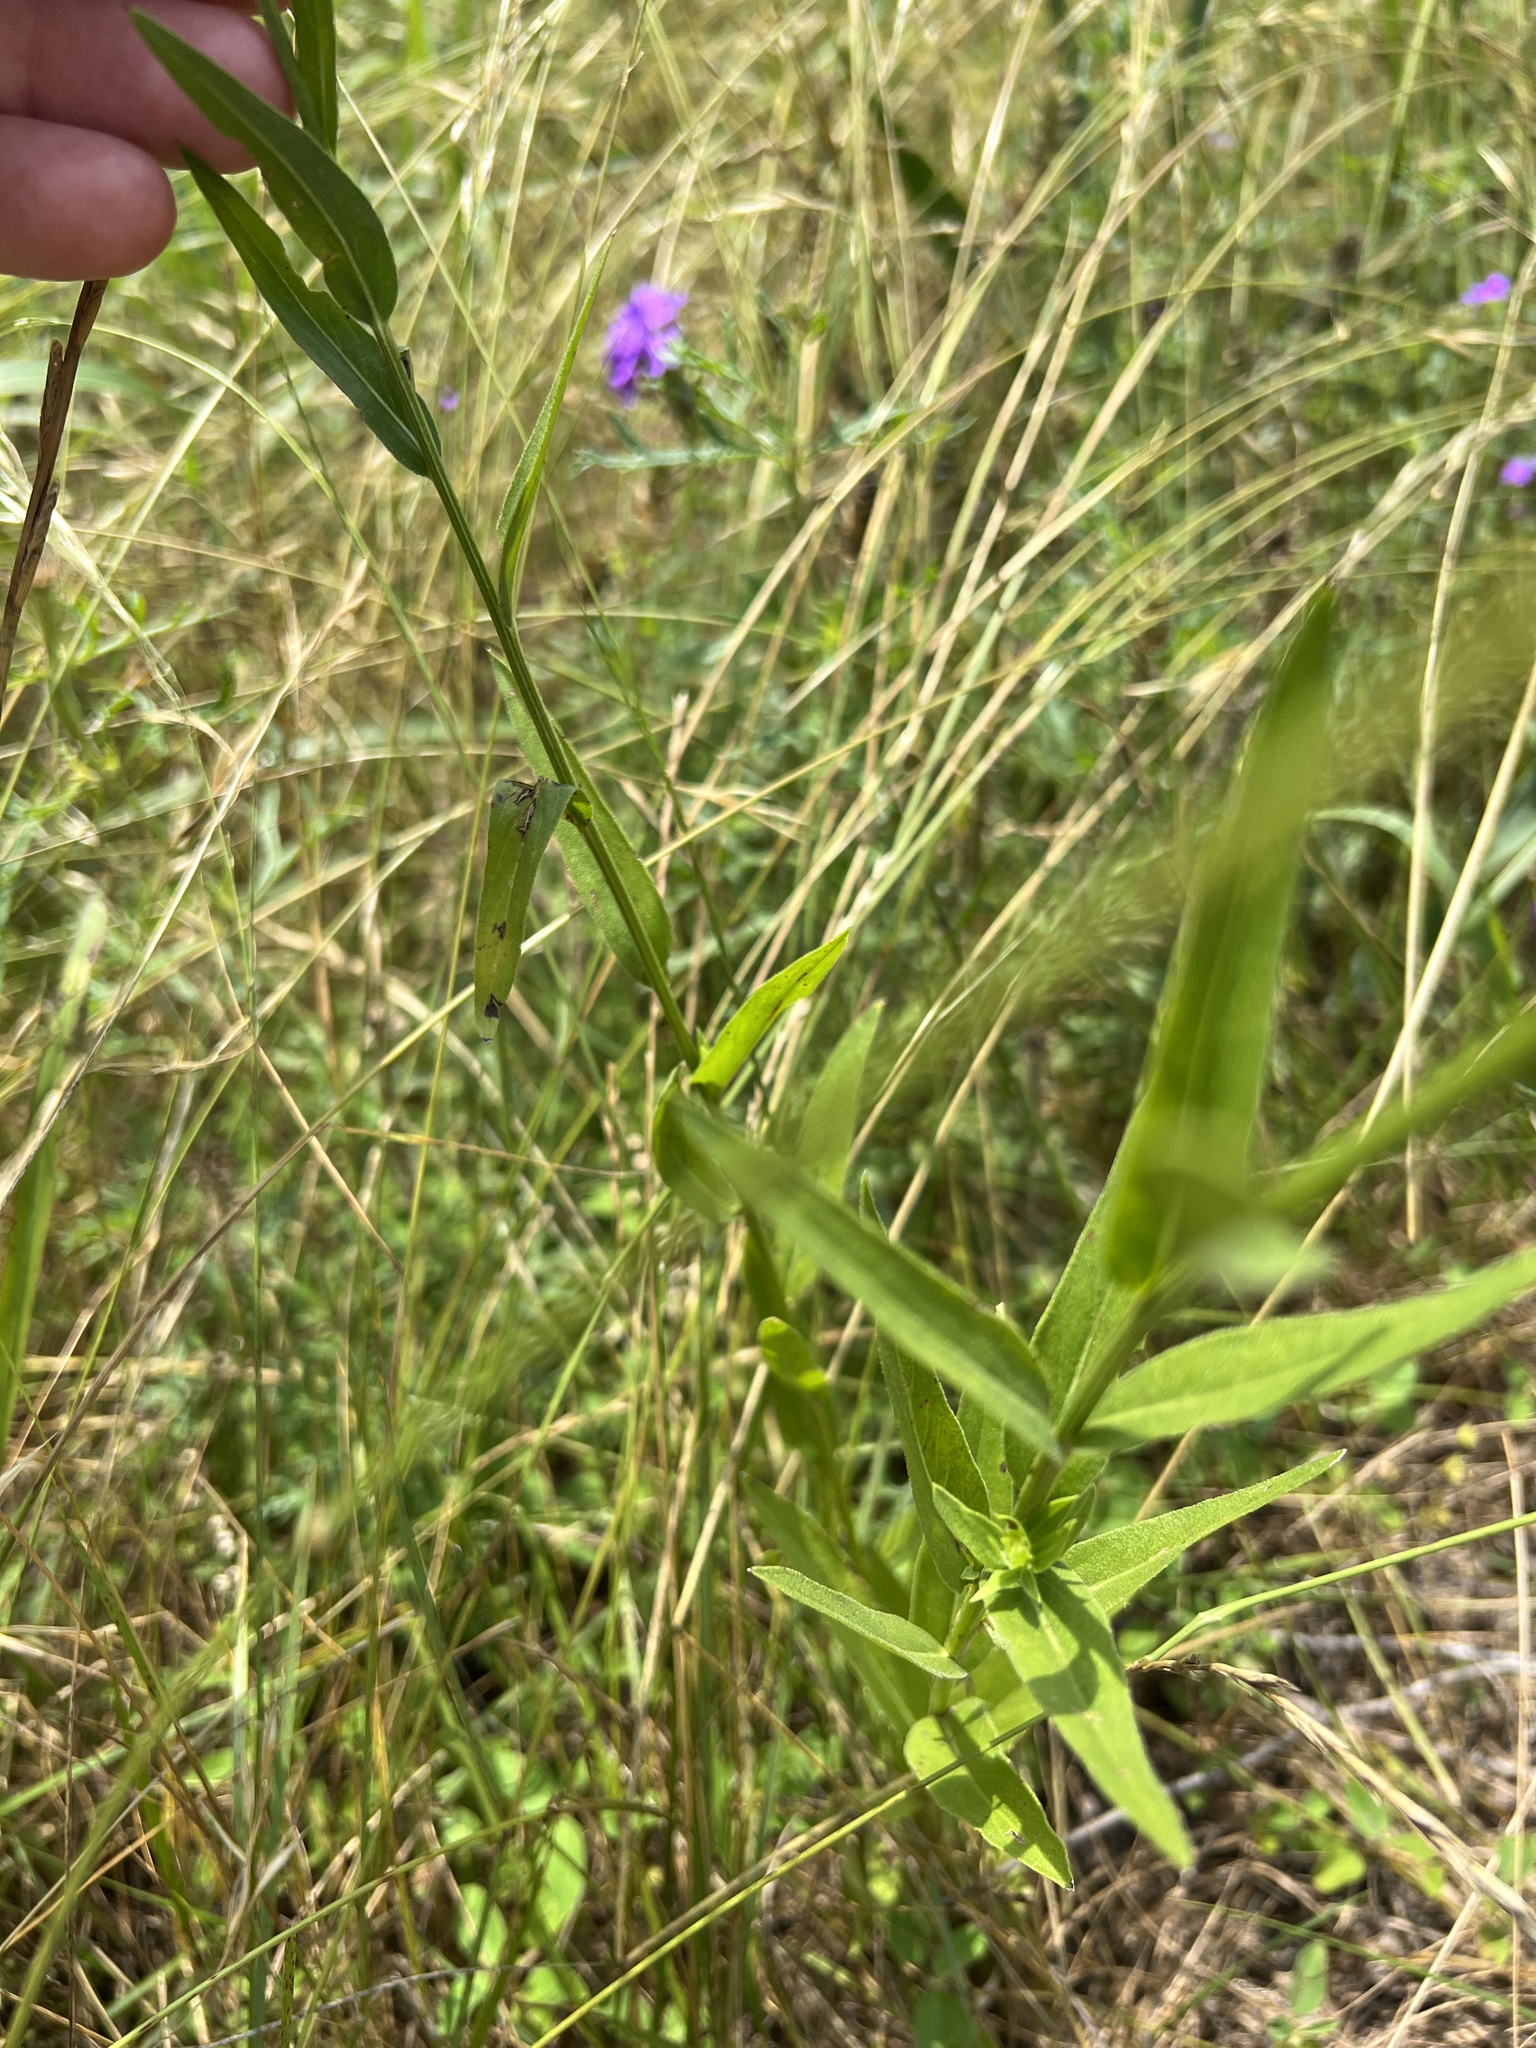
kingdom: Plantae
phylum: Tracheophyta
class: Magnoliopsida
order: Asterales
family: Asteraceae
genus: Plectocephalus
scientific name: Plectocephalus americanus
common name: American basket-flower
